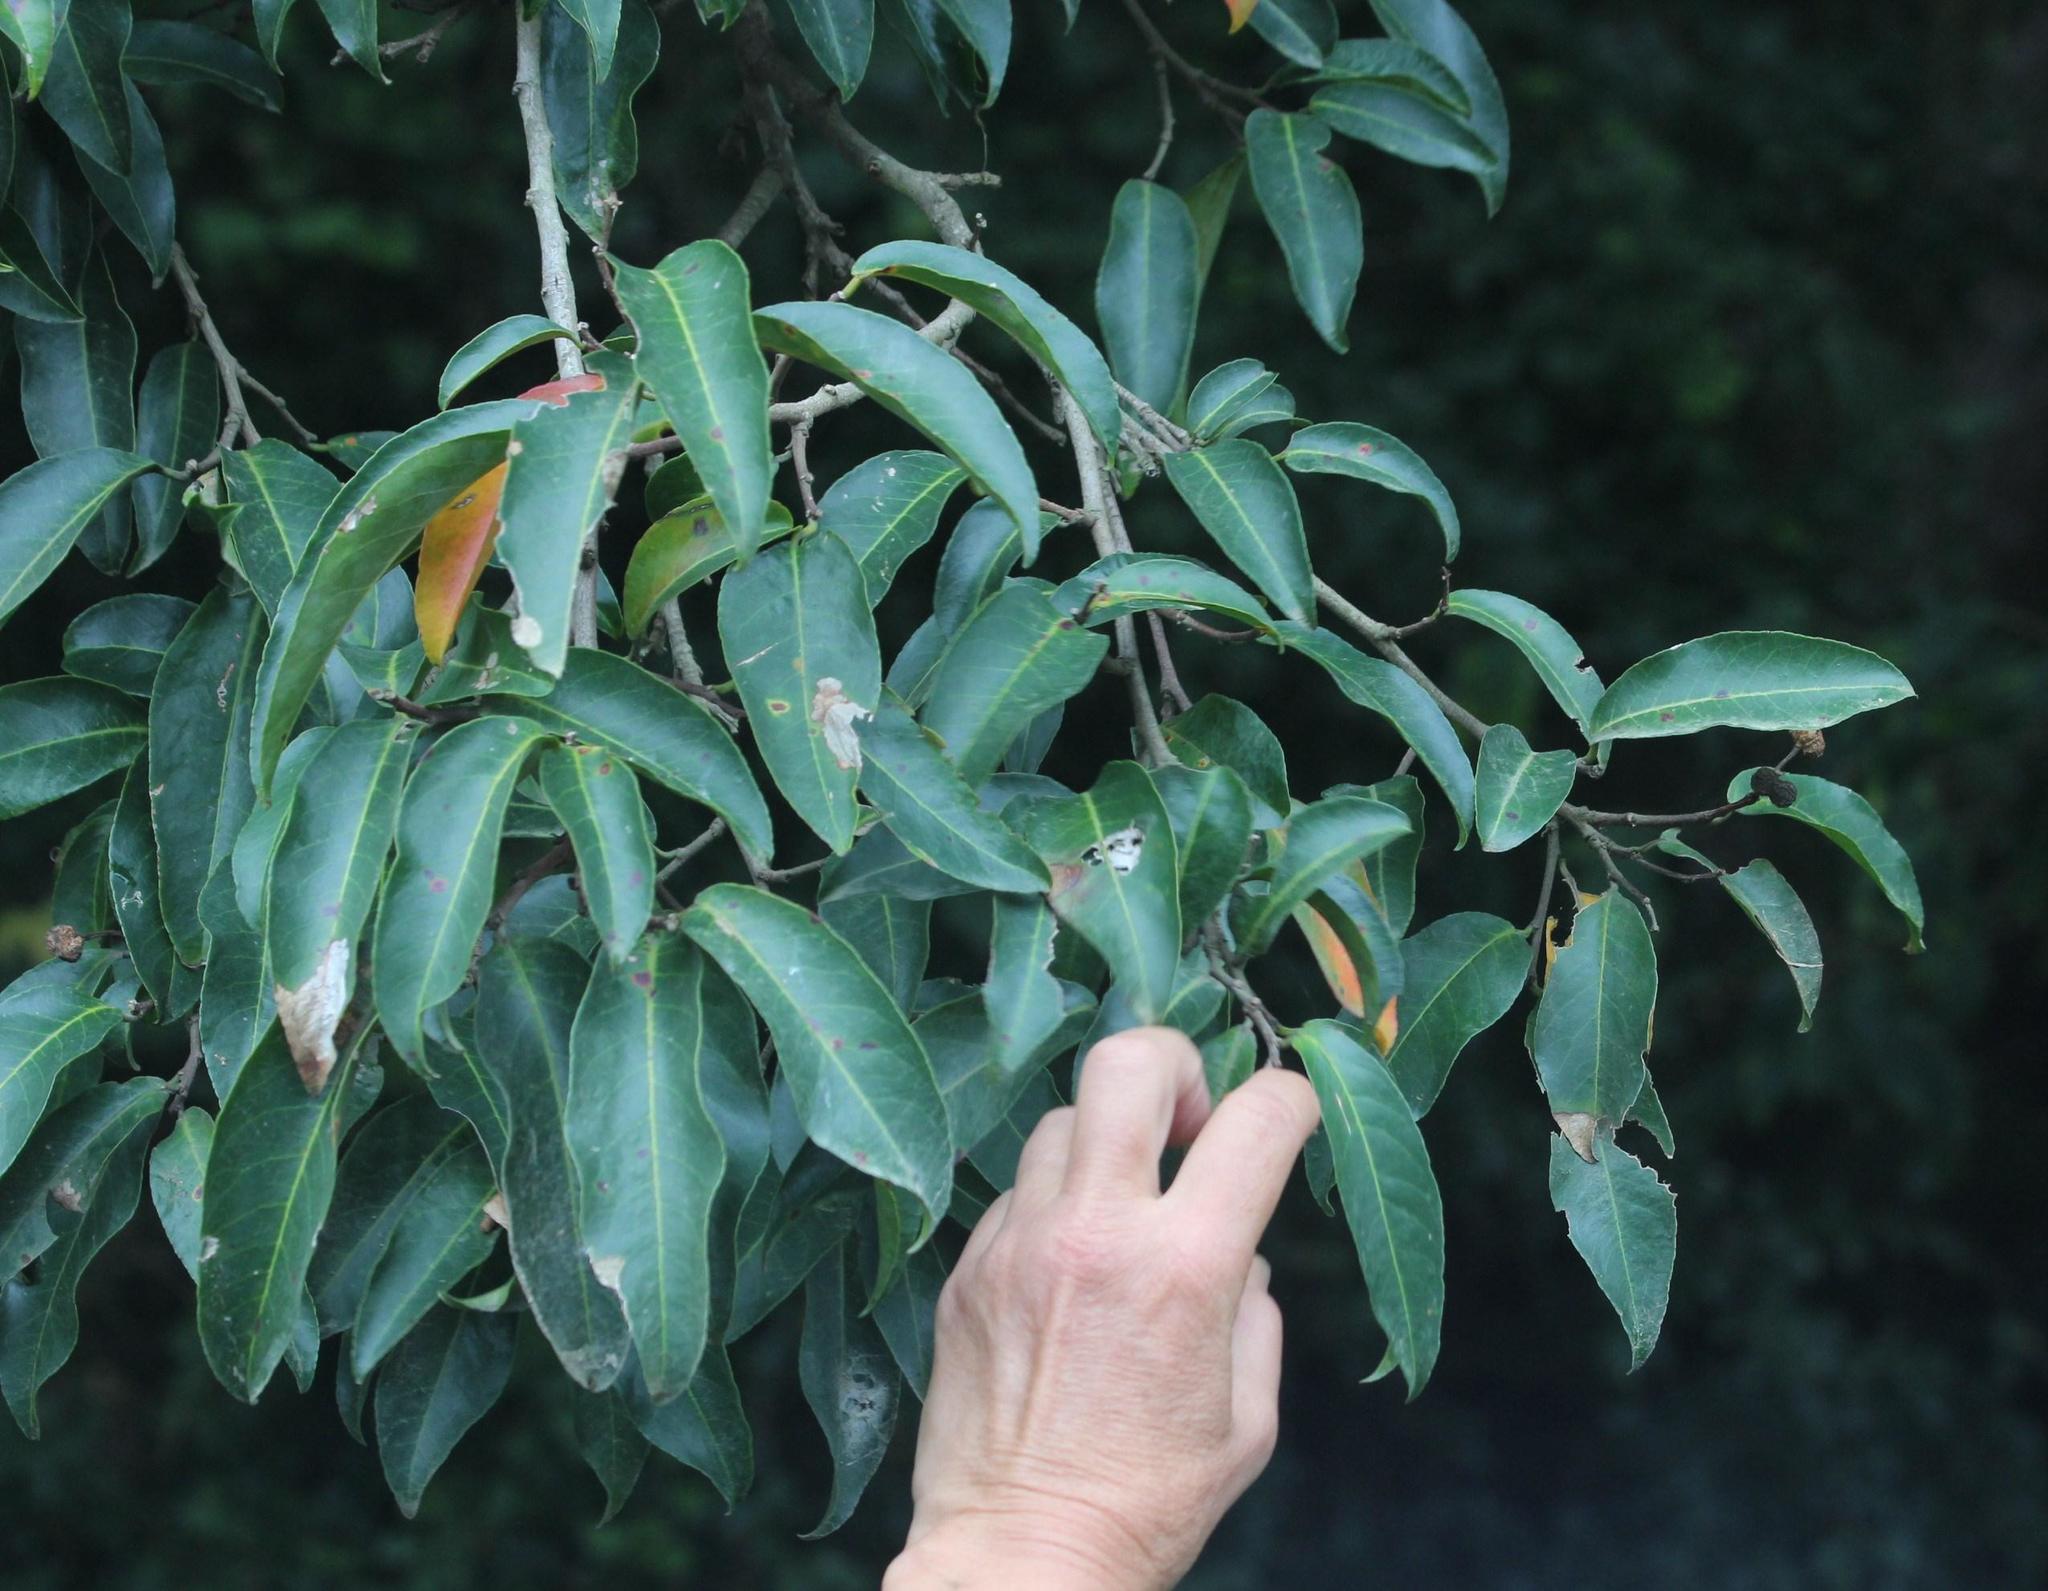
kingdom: Plantae
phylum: Tracheophyta
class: Magnoliopsida
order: Rosales
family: Rosaceae
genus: Prunus
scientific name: Prunus africana
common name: African cherry
